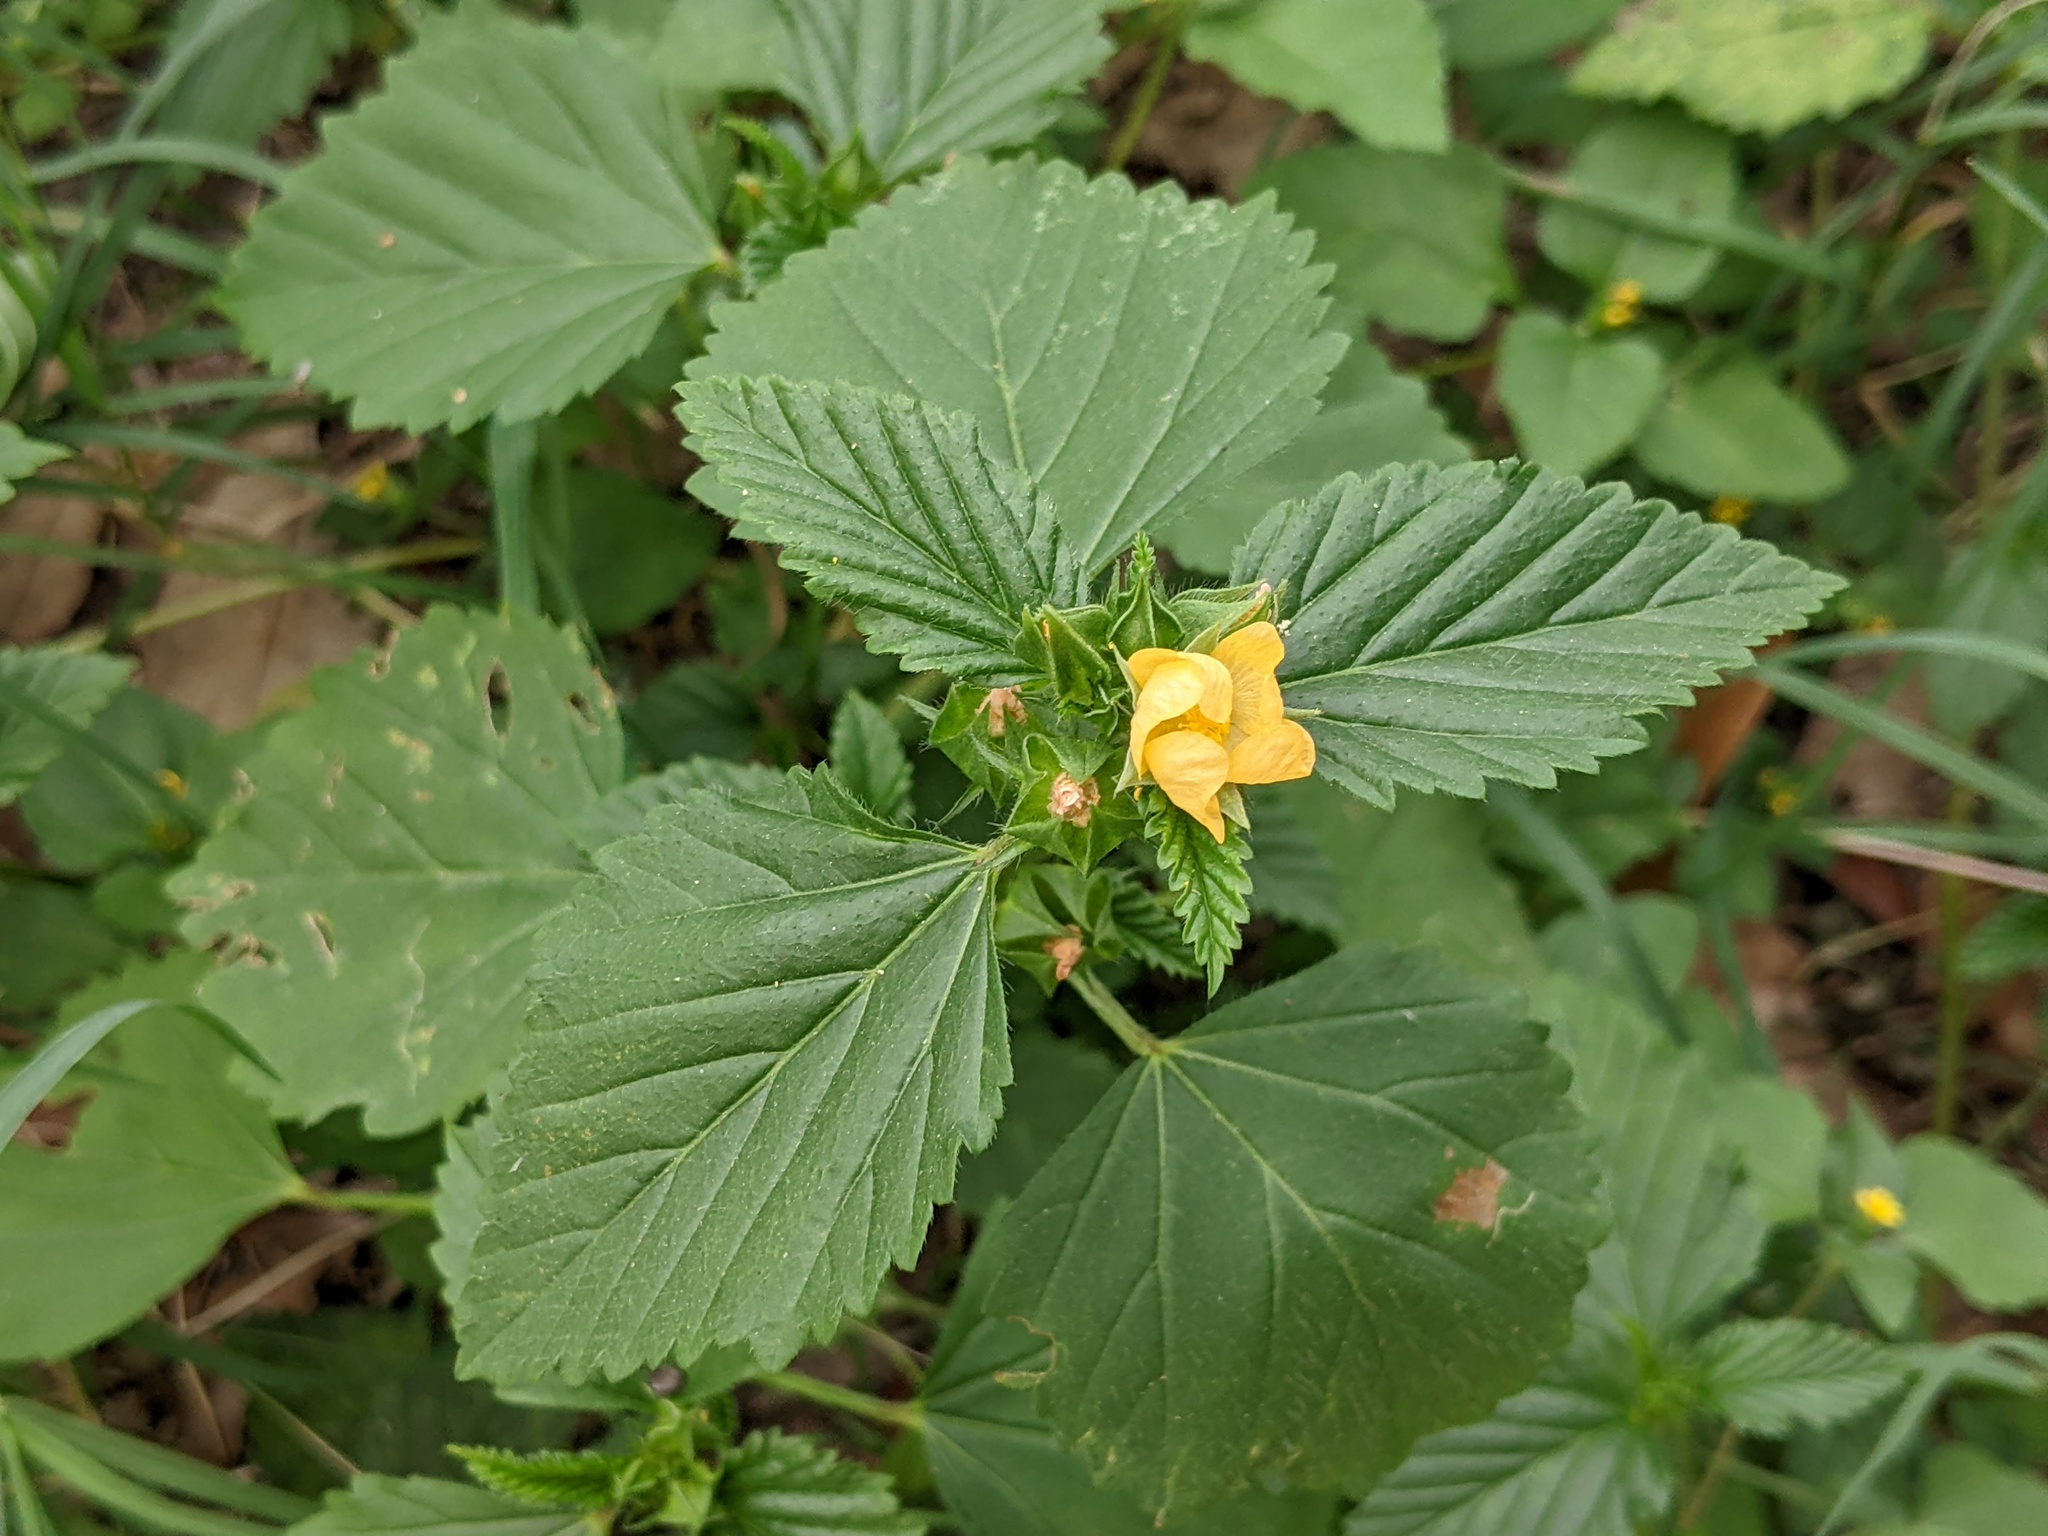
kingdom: Plantae
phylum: Tracheophyta
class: Magnoliopsida
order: Malvales
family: Malvaceae
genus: Malvastrum
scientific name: Malvastrum coromandelianum
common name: Threelobe false mallow
